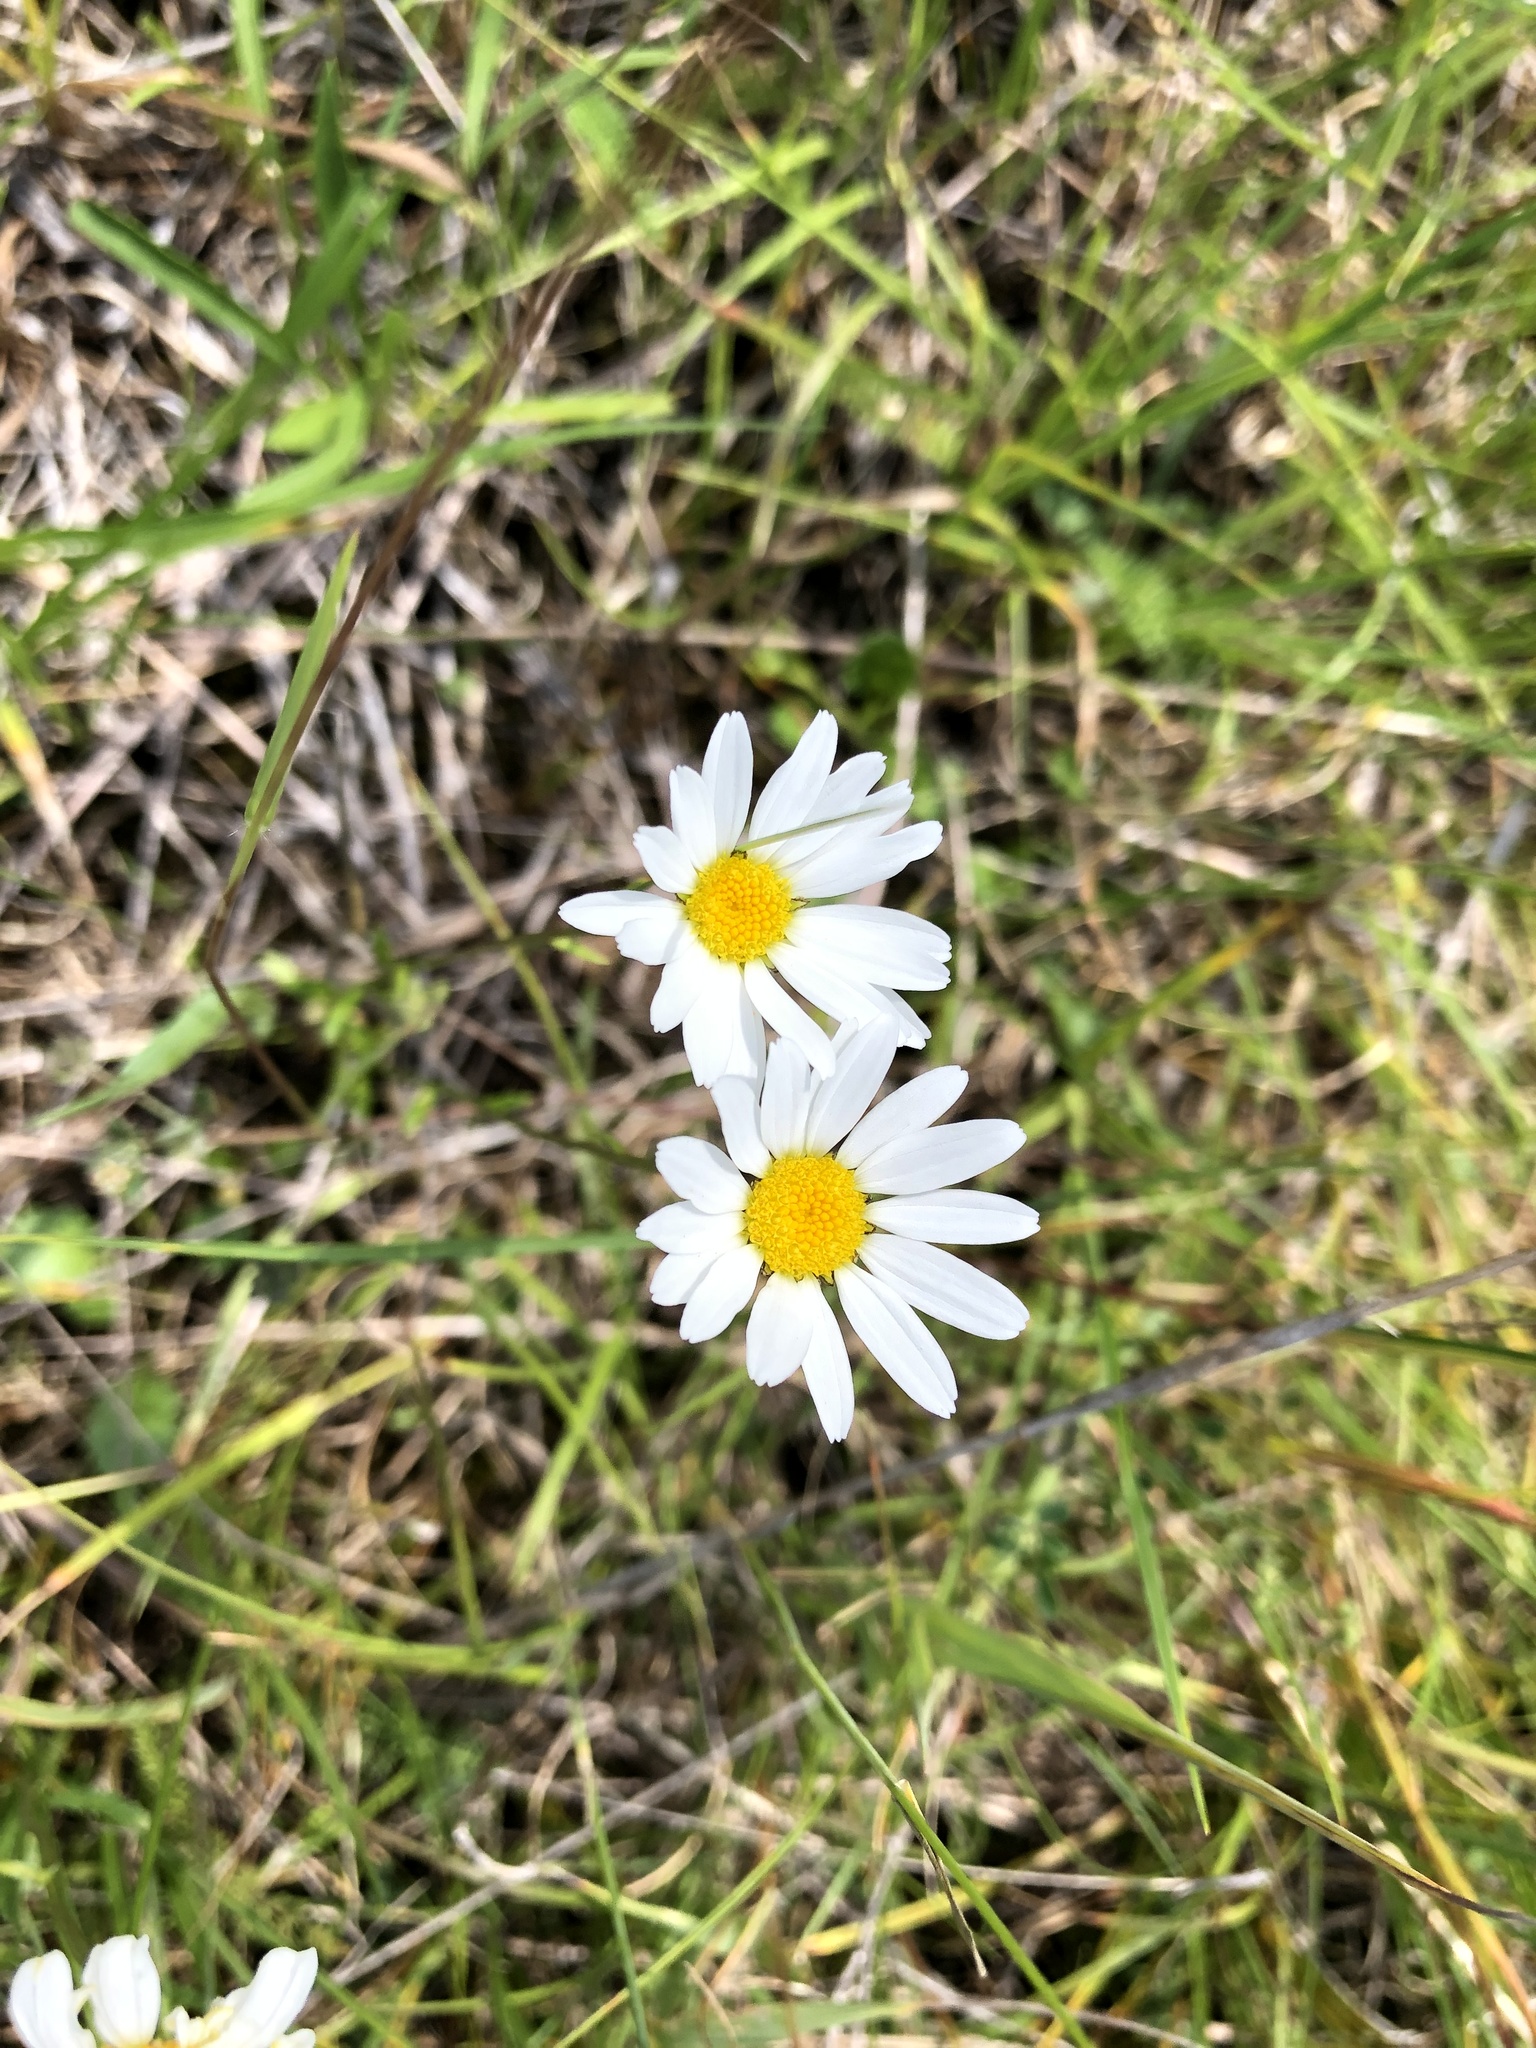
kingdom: Plantae
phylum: Tracheophyta
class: Magnoliopsida
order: Asterales
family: Asteraceae
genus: Leucanthemum
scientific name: Leucanthemum vulgare
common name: Oxeye daisy
